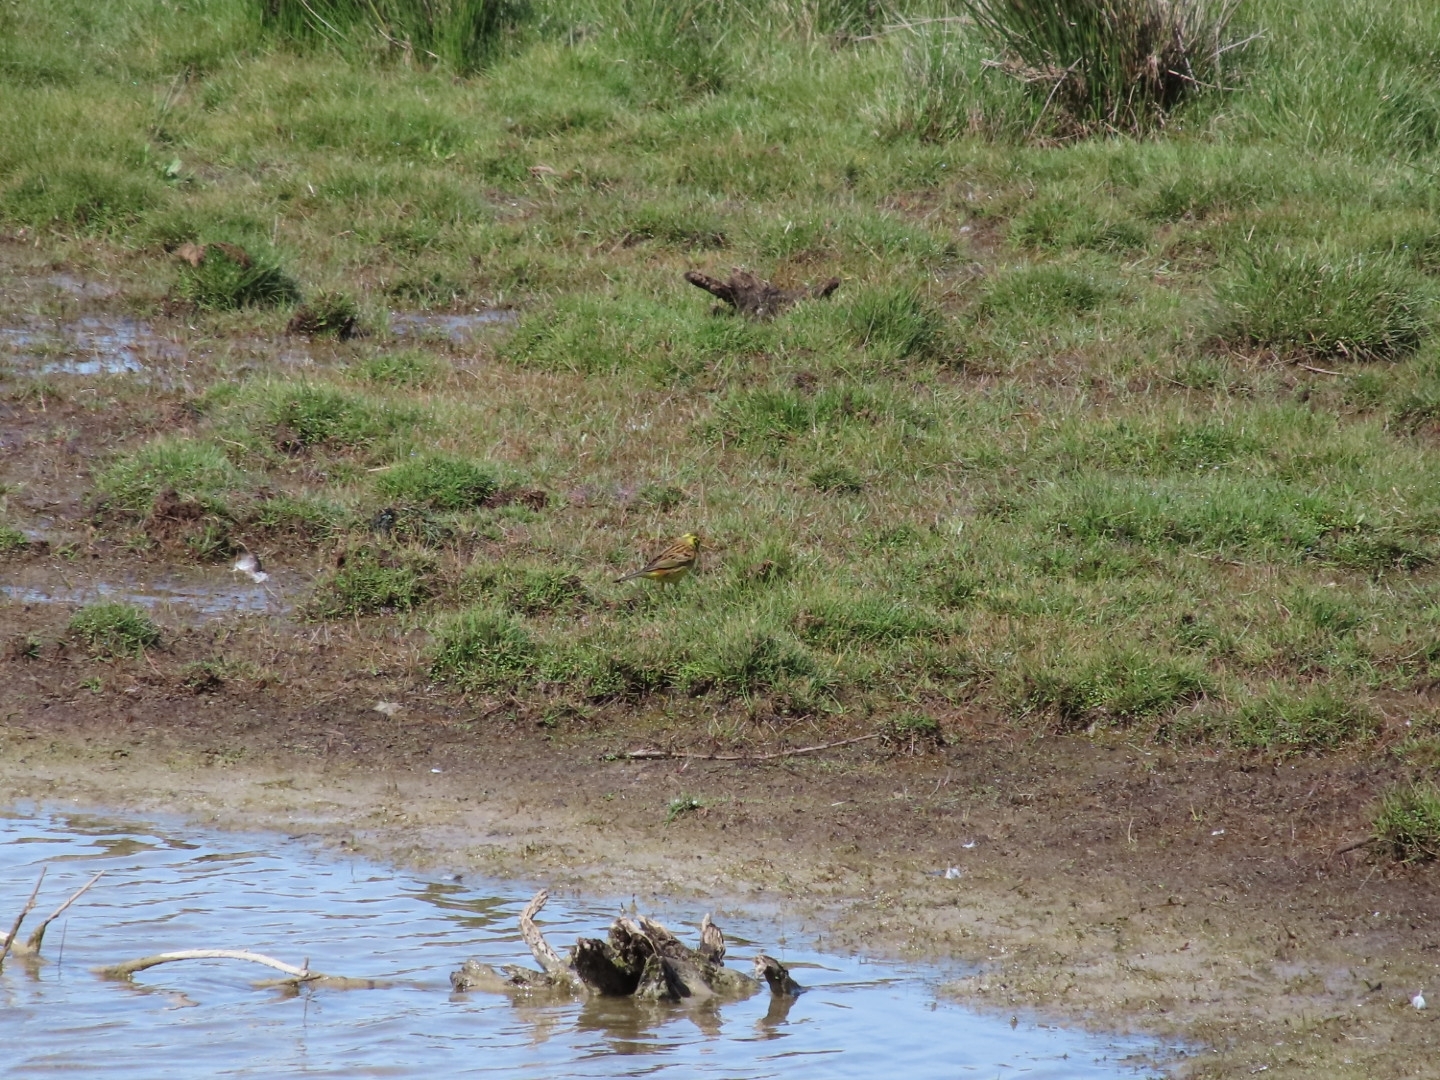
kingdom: Animalia
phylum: Chordata
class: Aves
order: Passeriformes
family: Emberizidae
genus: Emberiza
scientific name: Emberiza citrinella
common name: Yellowhammer
